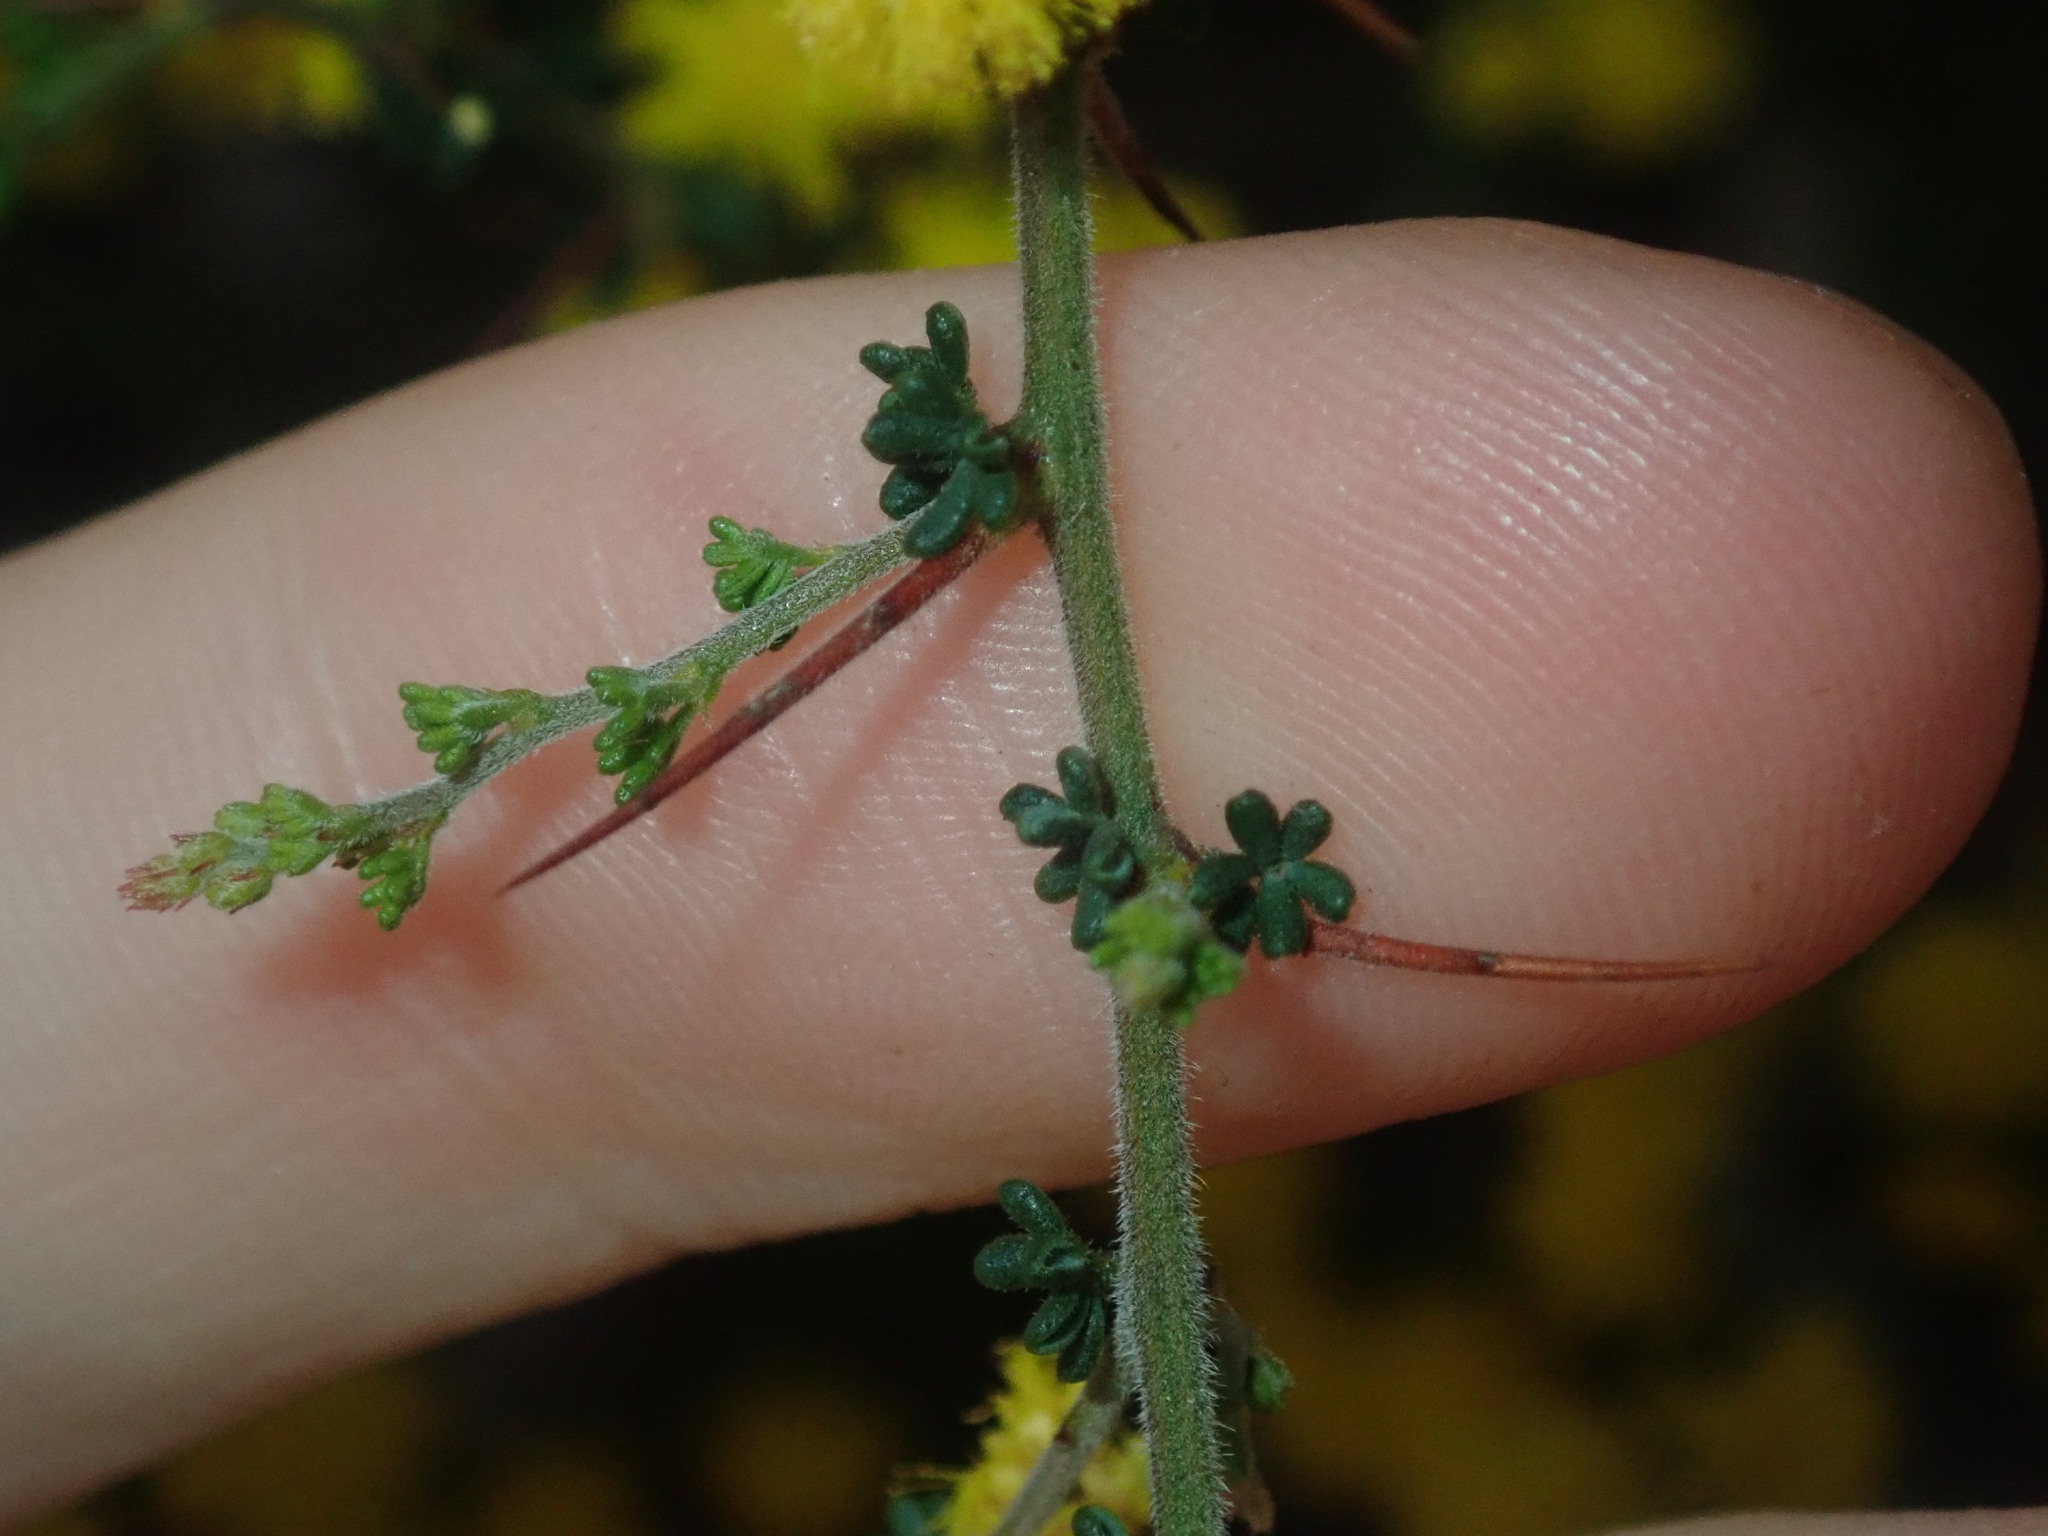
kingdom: Plantae
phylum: Tracheophyta
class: Magnoliopsida
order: Fabales
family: Fabaceae
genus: Acacia
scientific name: Acacia lasiocarpa
